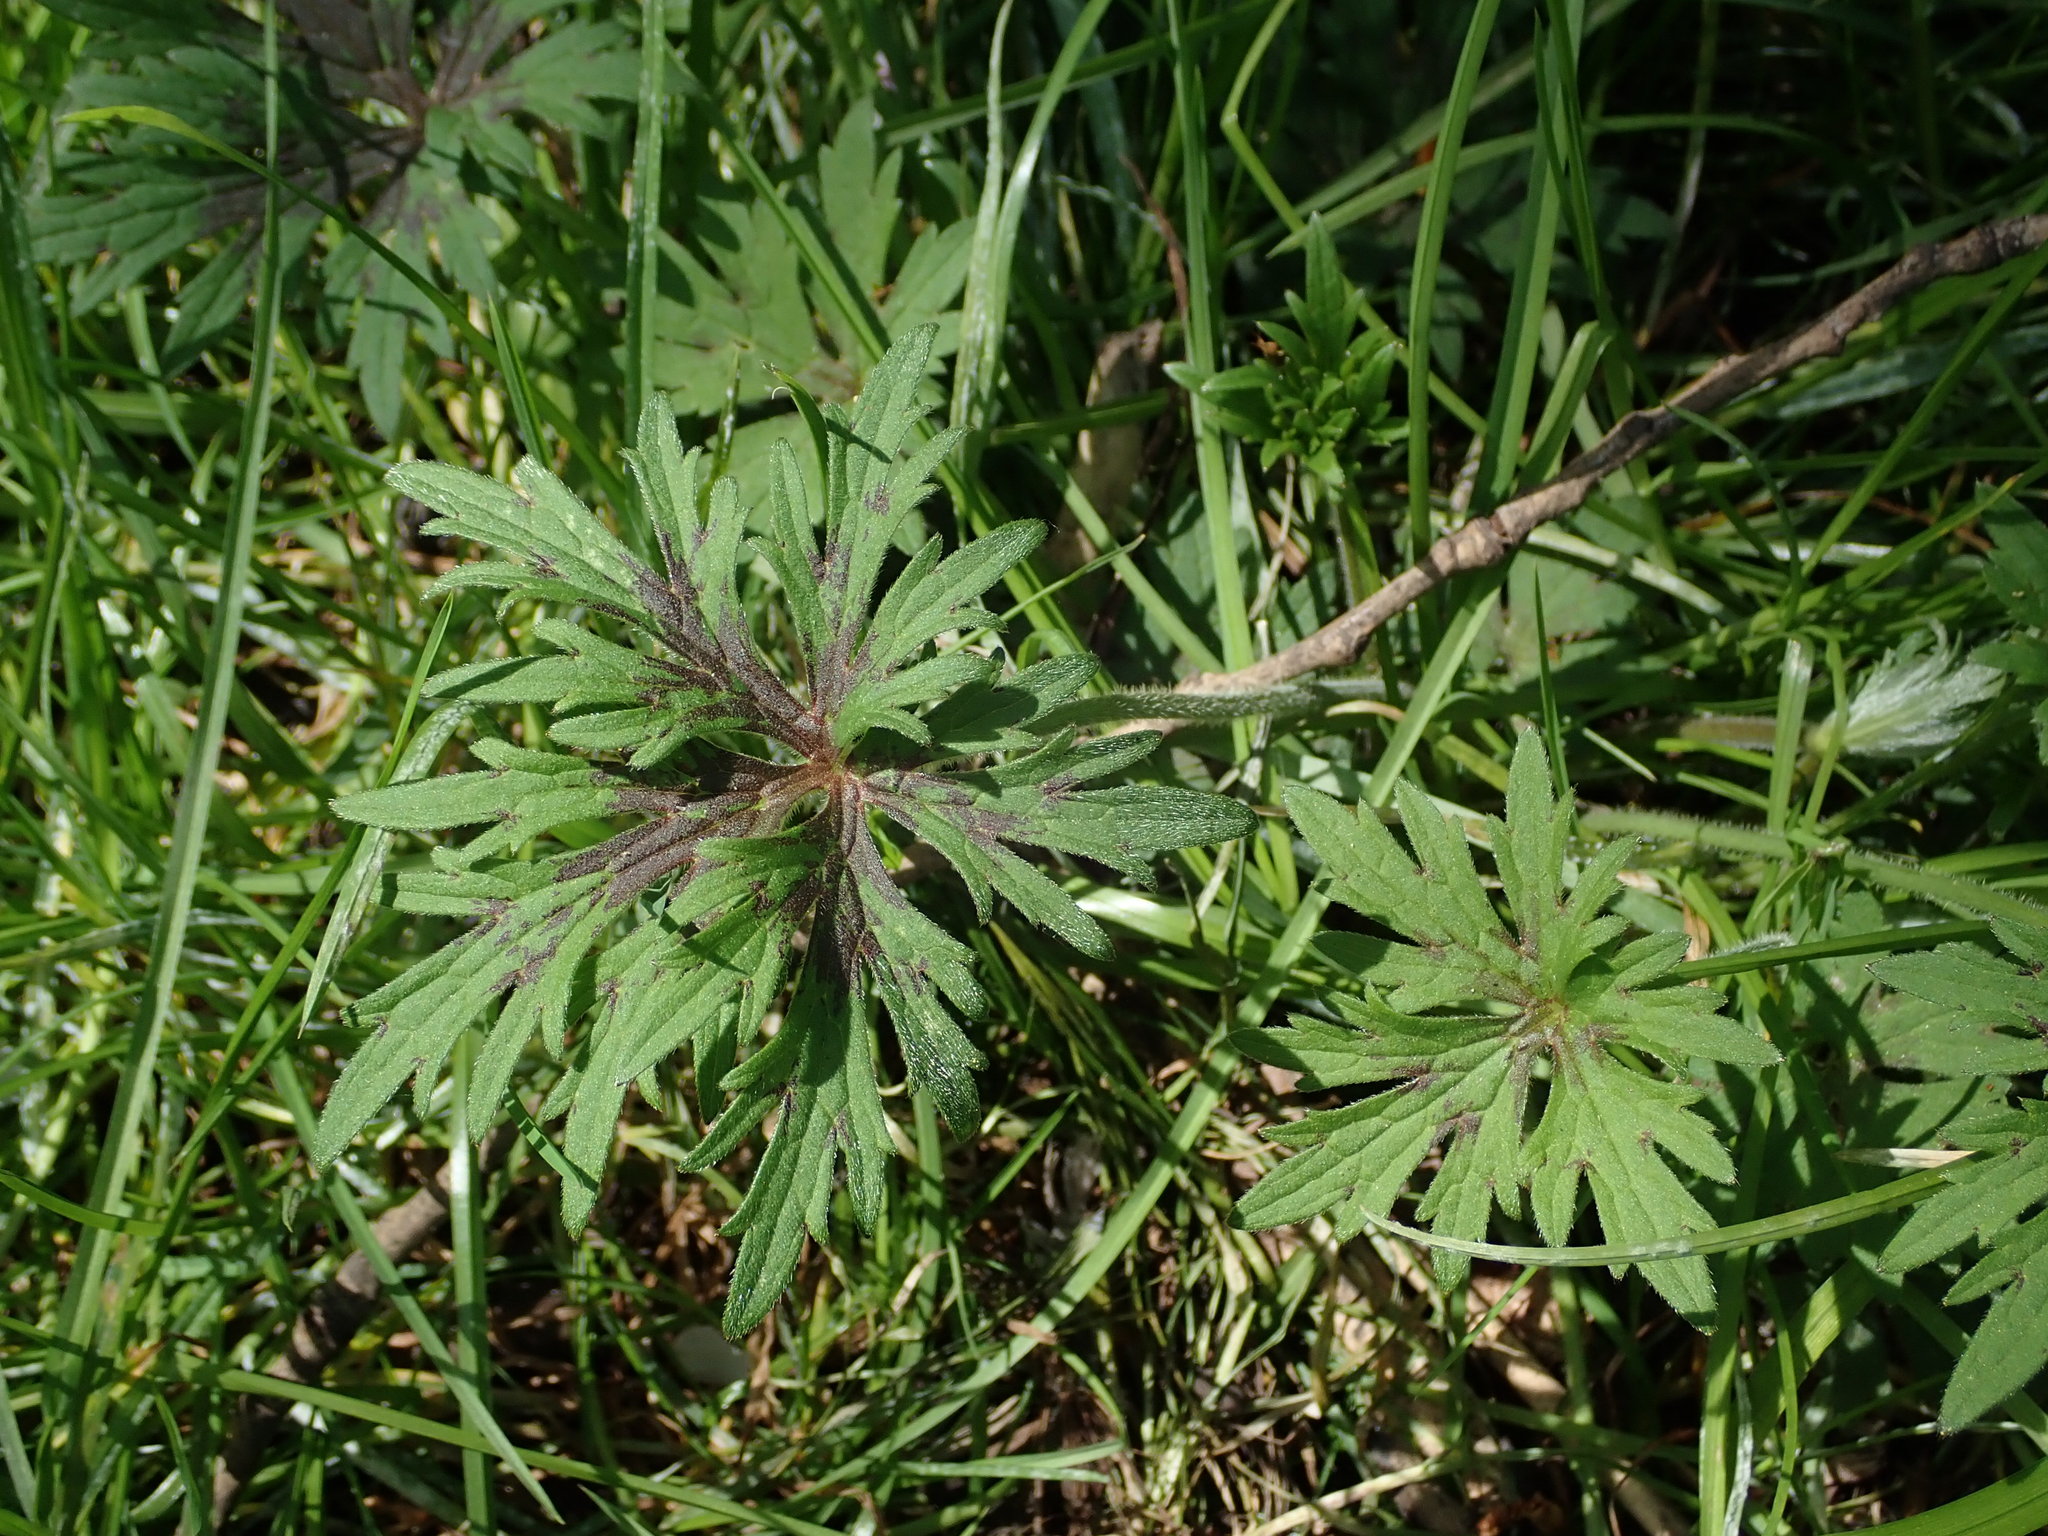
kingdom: Plantae
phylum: Tracheophyta
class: Magnoliopsida
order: Ranunculales
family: Ranunculaceae
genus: Ranunculus
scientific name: Ranunculus acris
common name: Meadow buttercup
